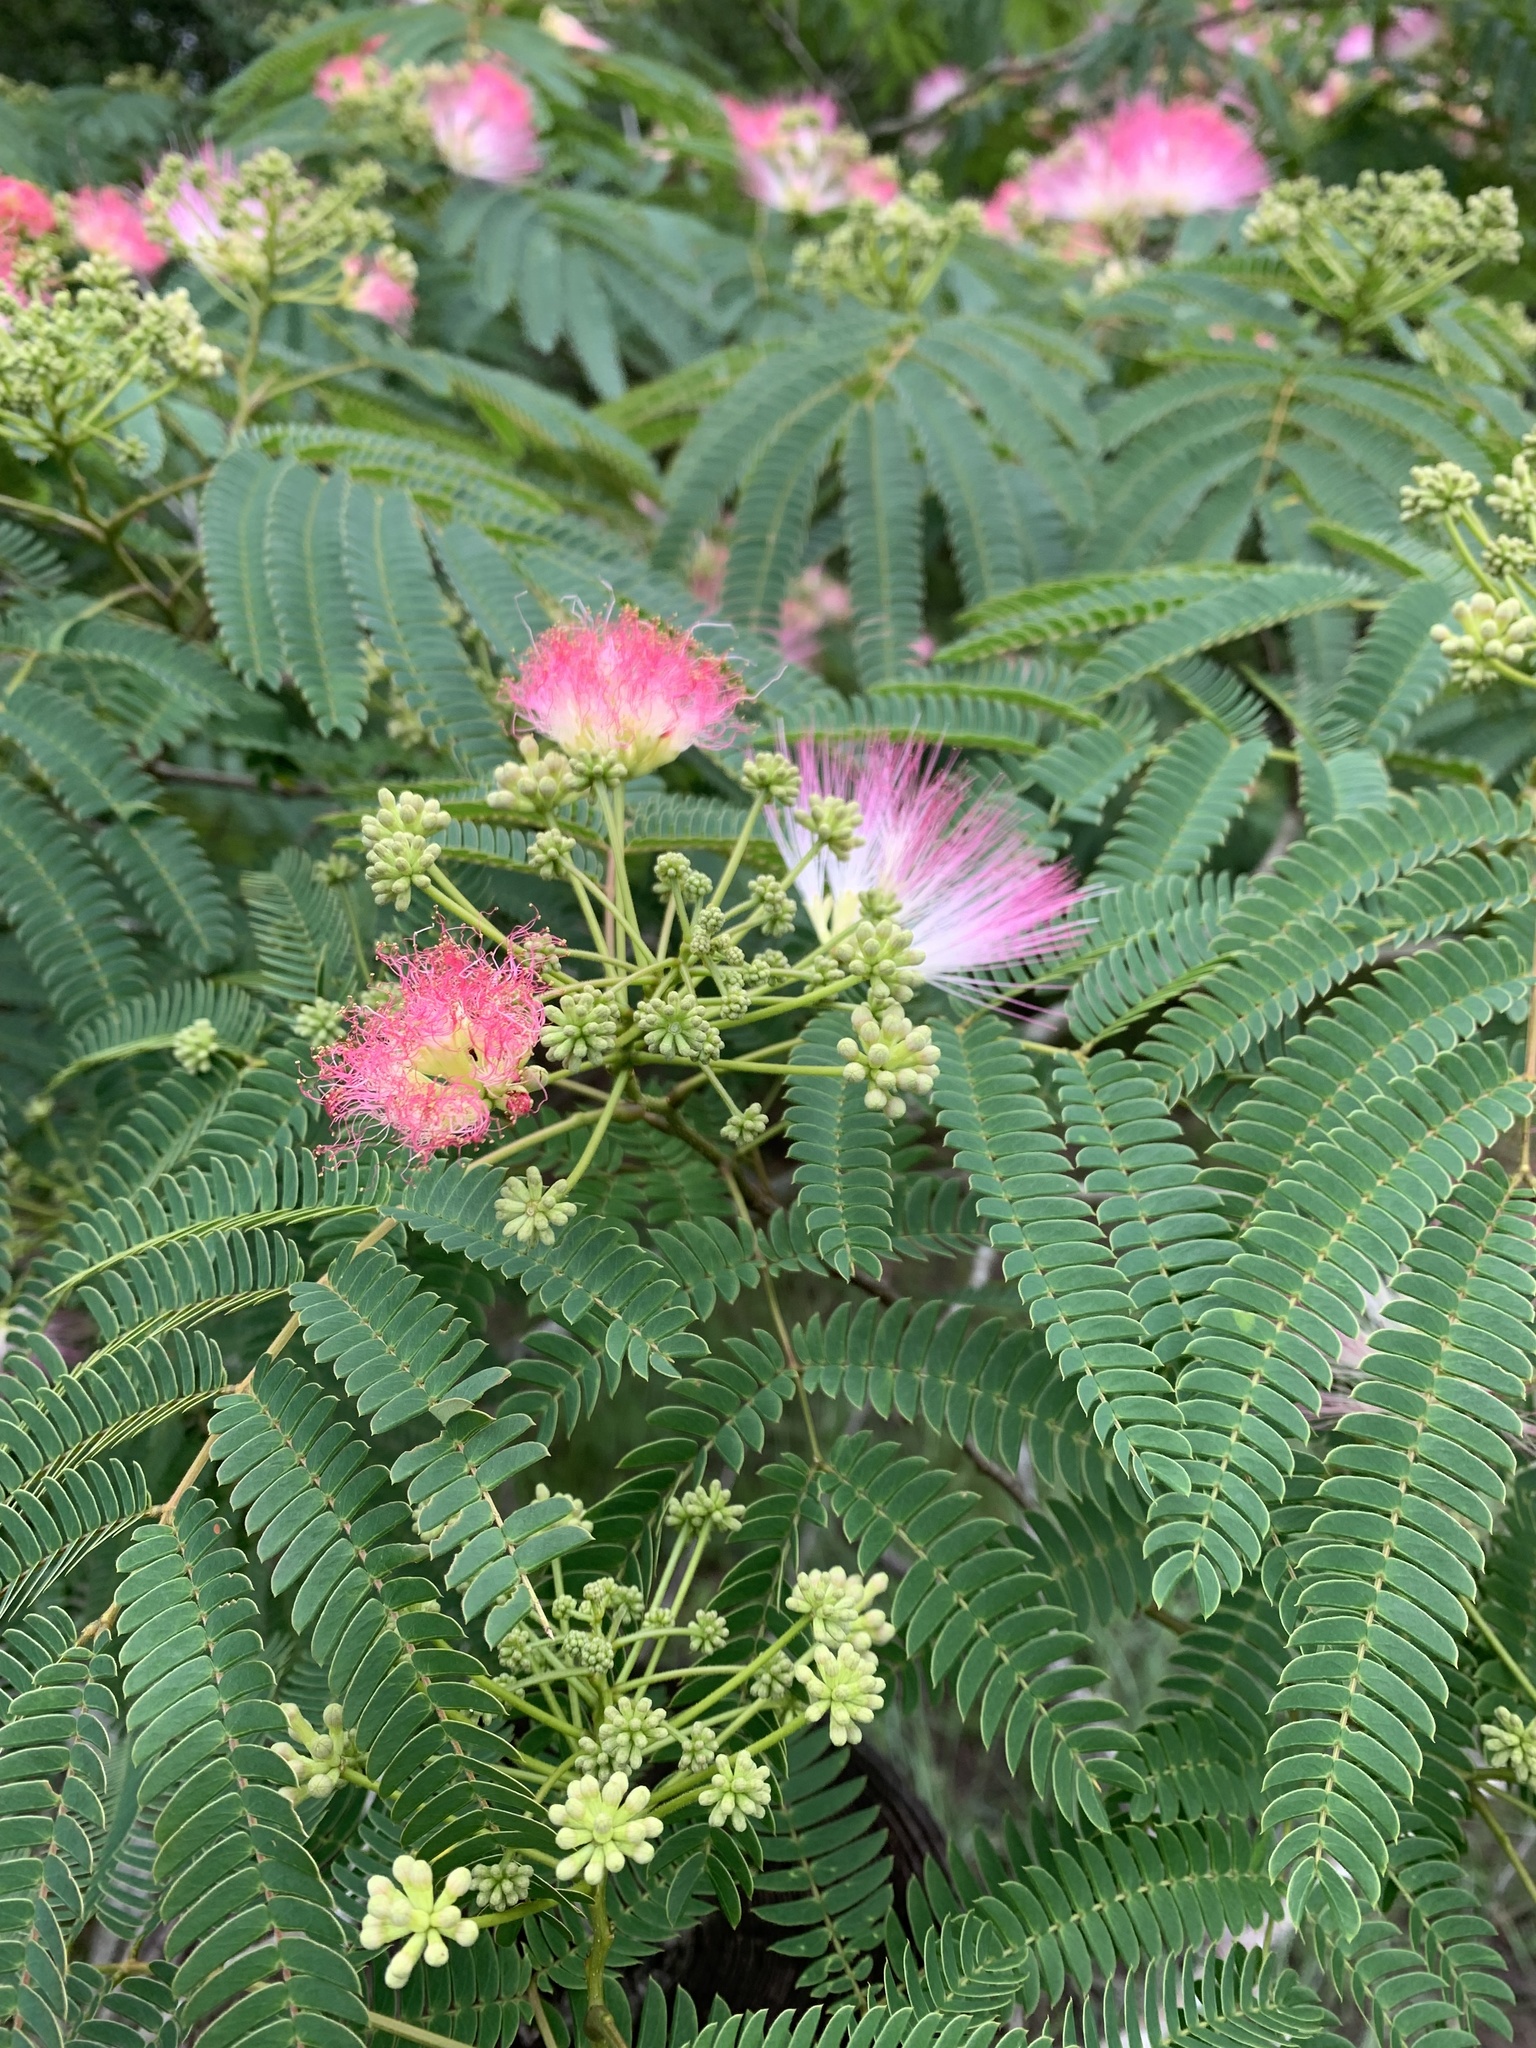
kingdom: Plantae
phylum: Tracheophyta
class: Magnoliopsida
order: Fabales
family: Fabaceae
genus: Albizia
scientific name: Albizia julibrissin
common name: Silktree
